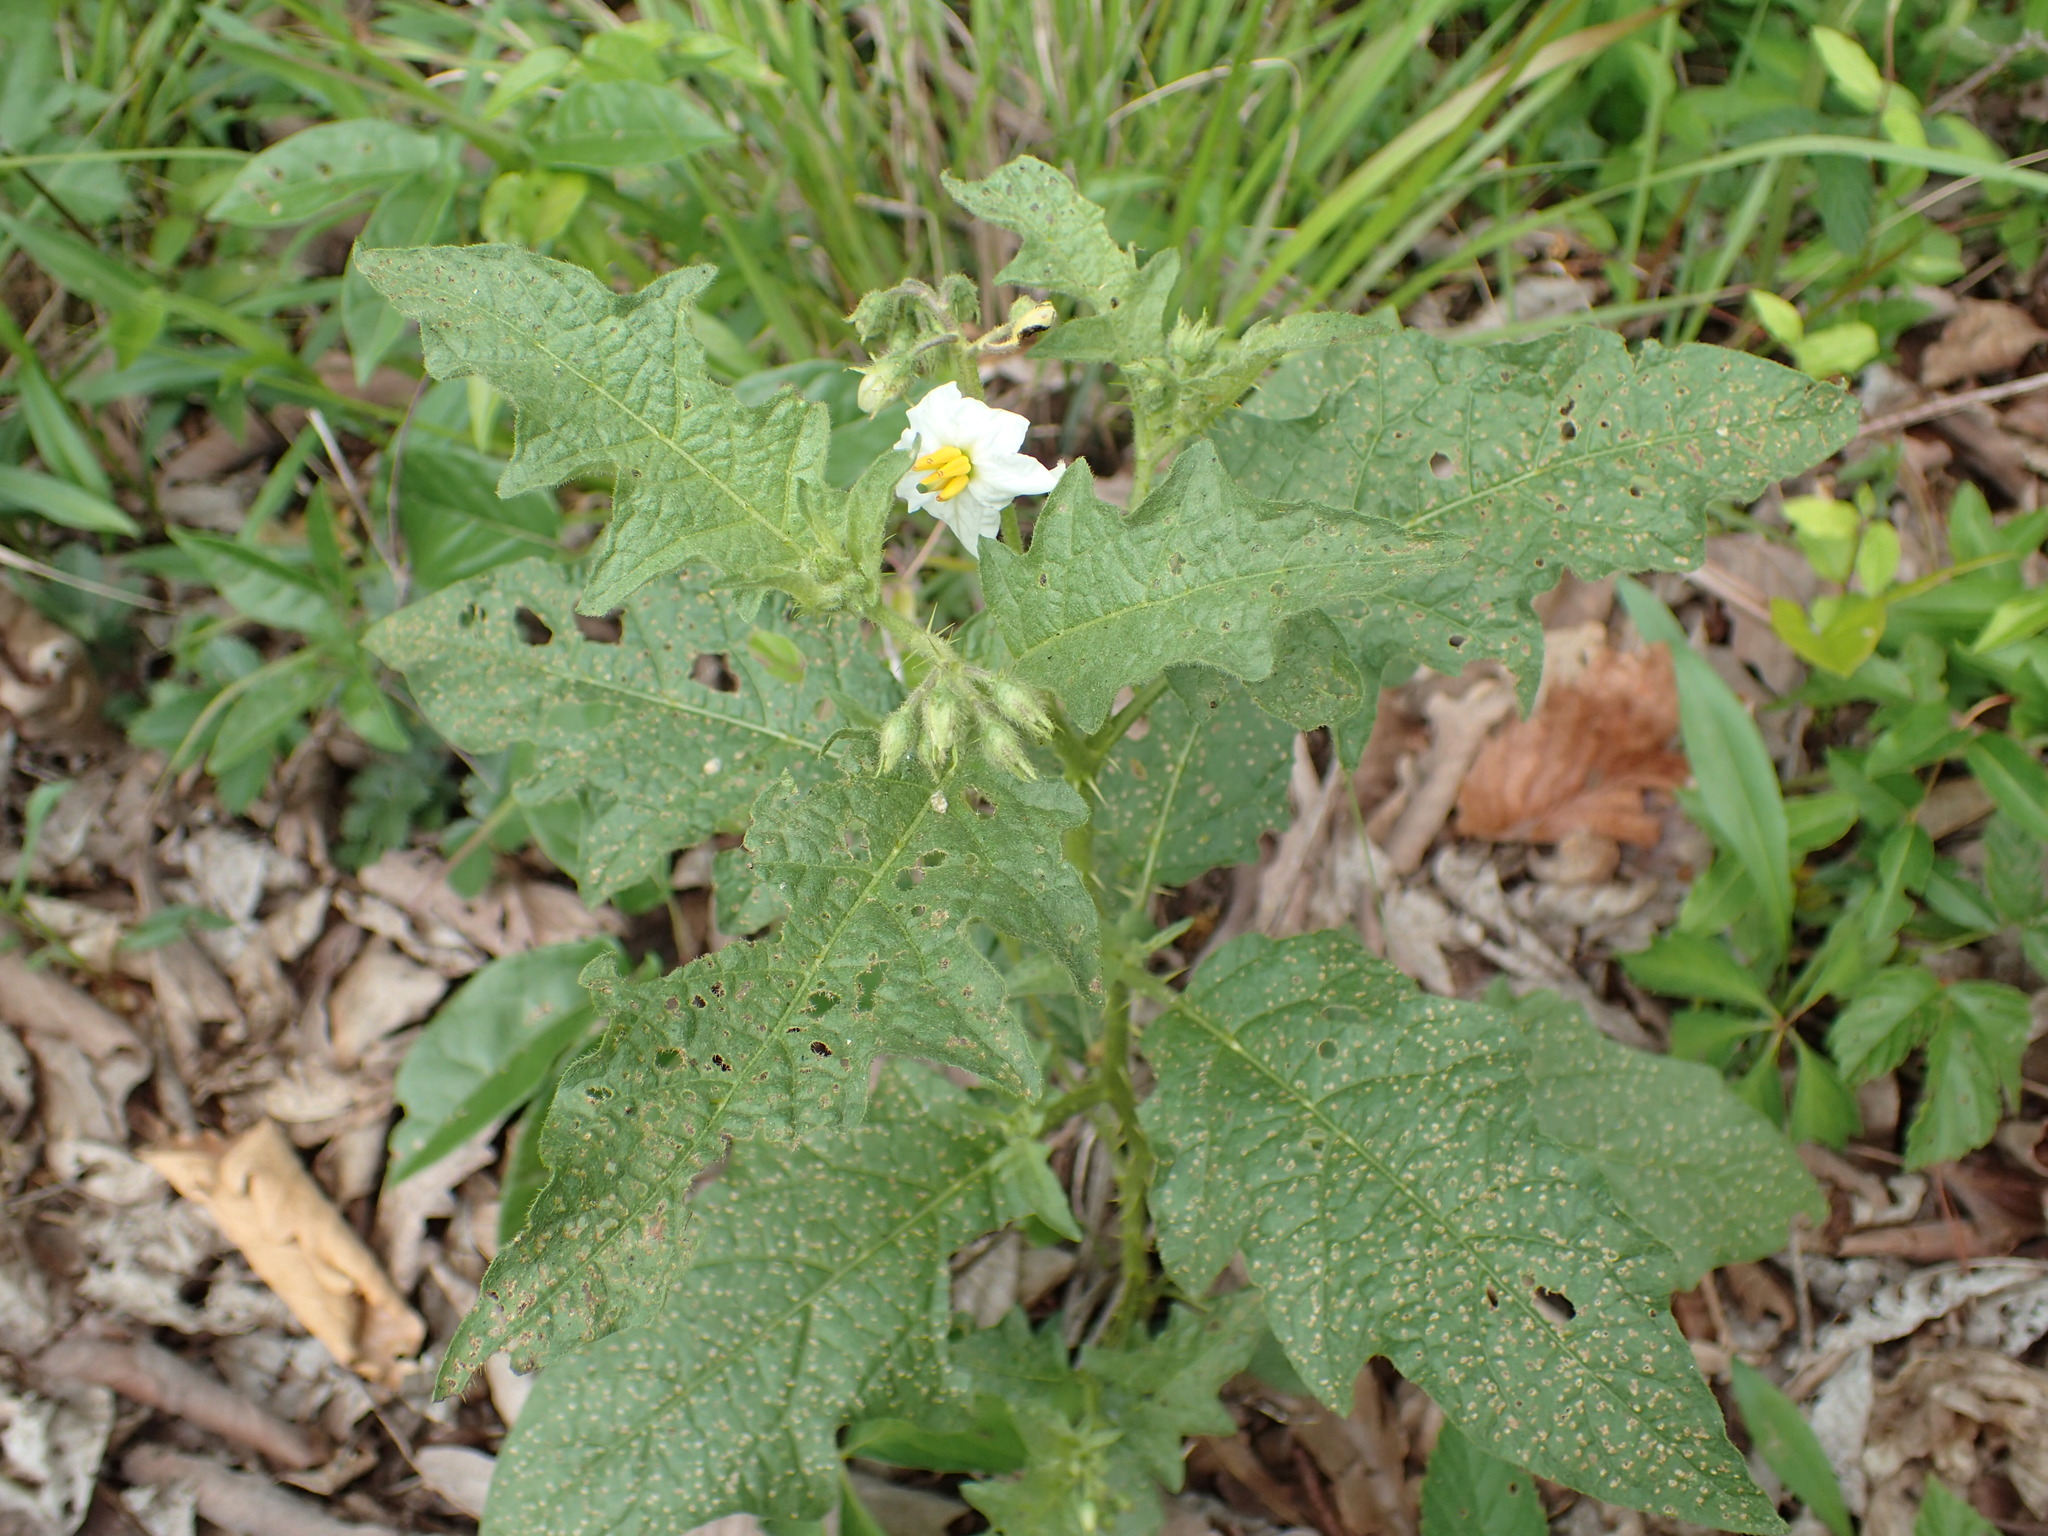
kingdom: Plantae
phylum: Tracheophyta
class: Magnoliopsida
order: Solanales
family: Solanaceae
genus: Solanum
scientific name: Solanum carolinense
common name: Horse-nettle
